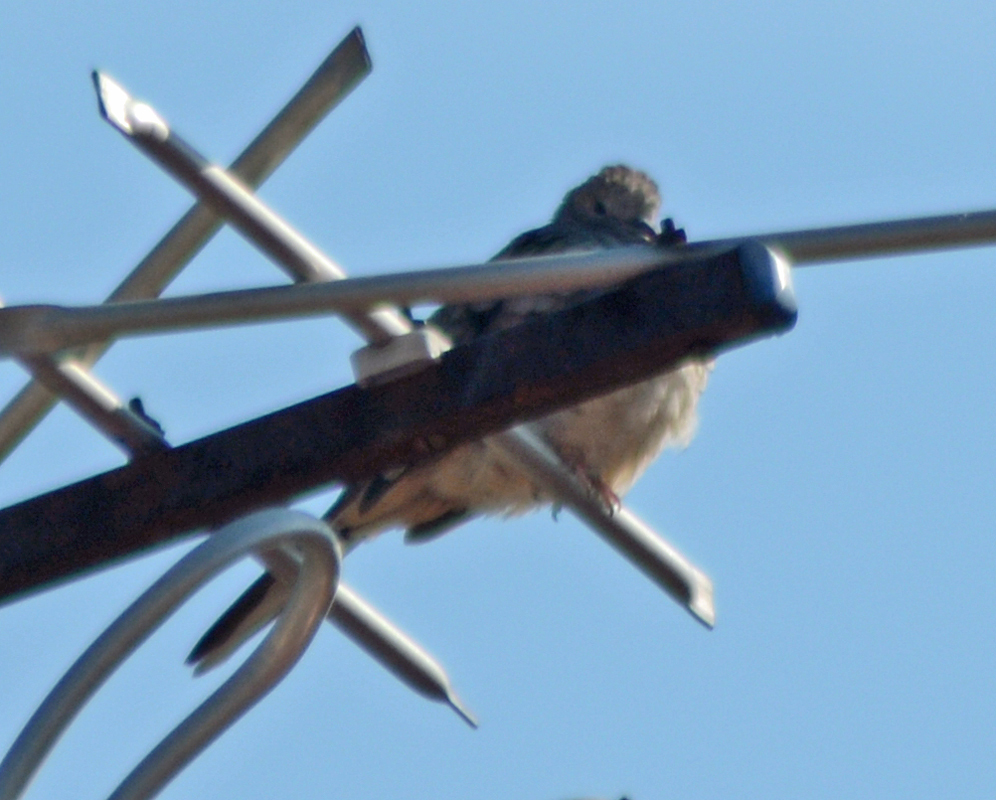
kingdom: Animalia
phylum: Chordata
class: Aves
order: Columbiformes
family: Columbidae
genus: Columbina
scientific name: Columbina inca
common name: Inca dove
